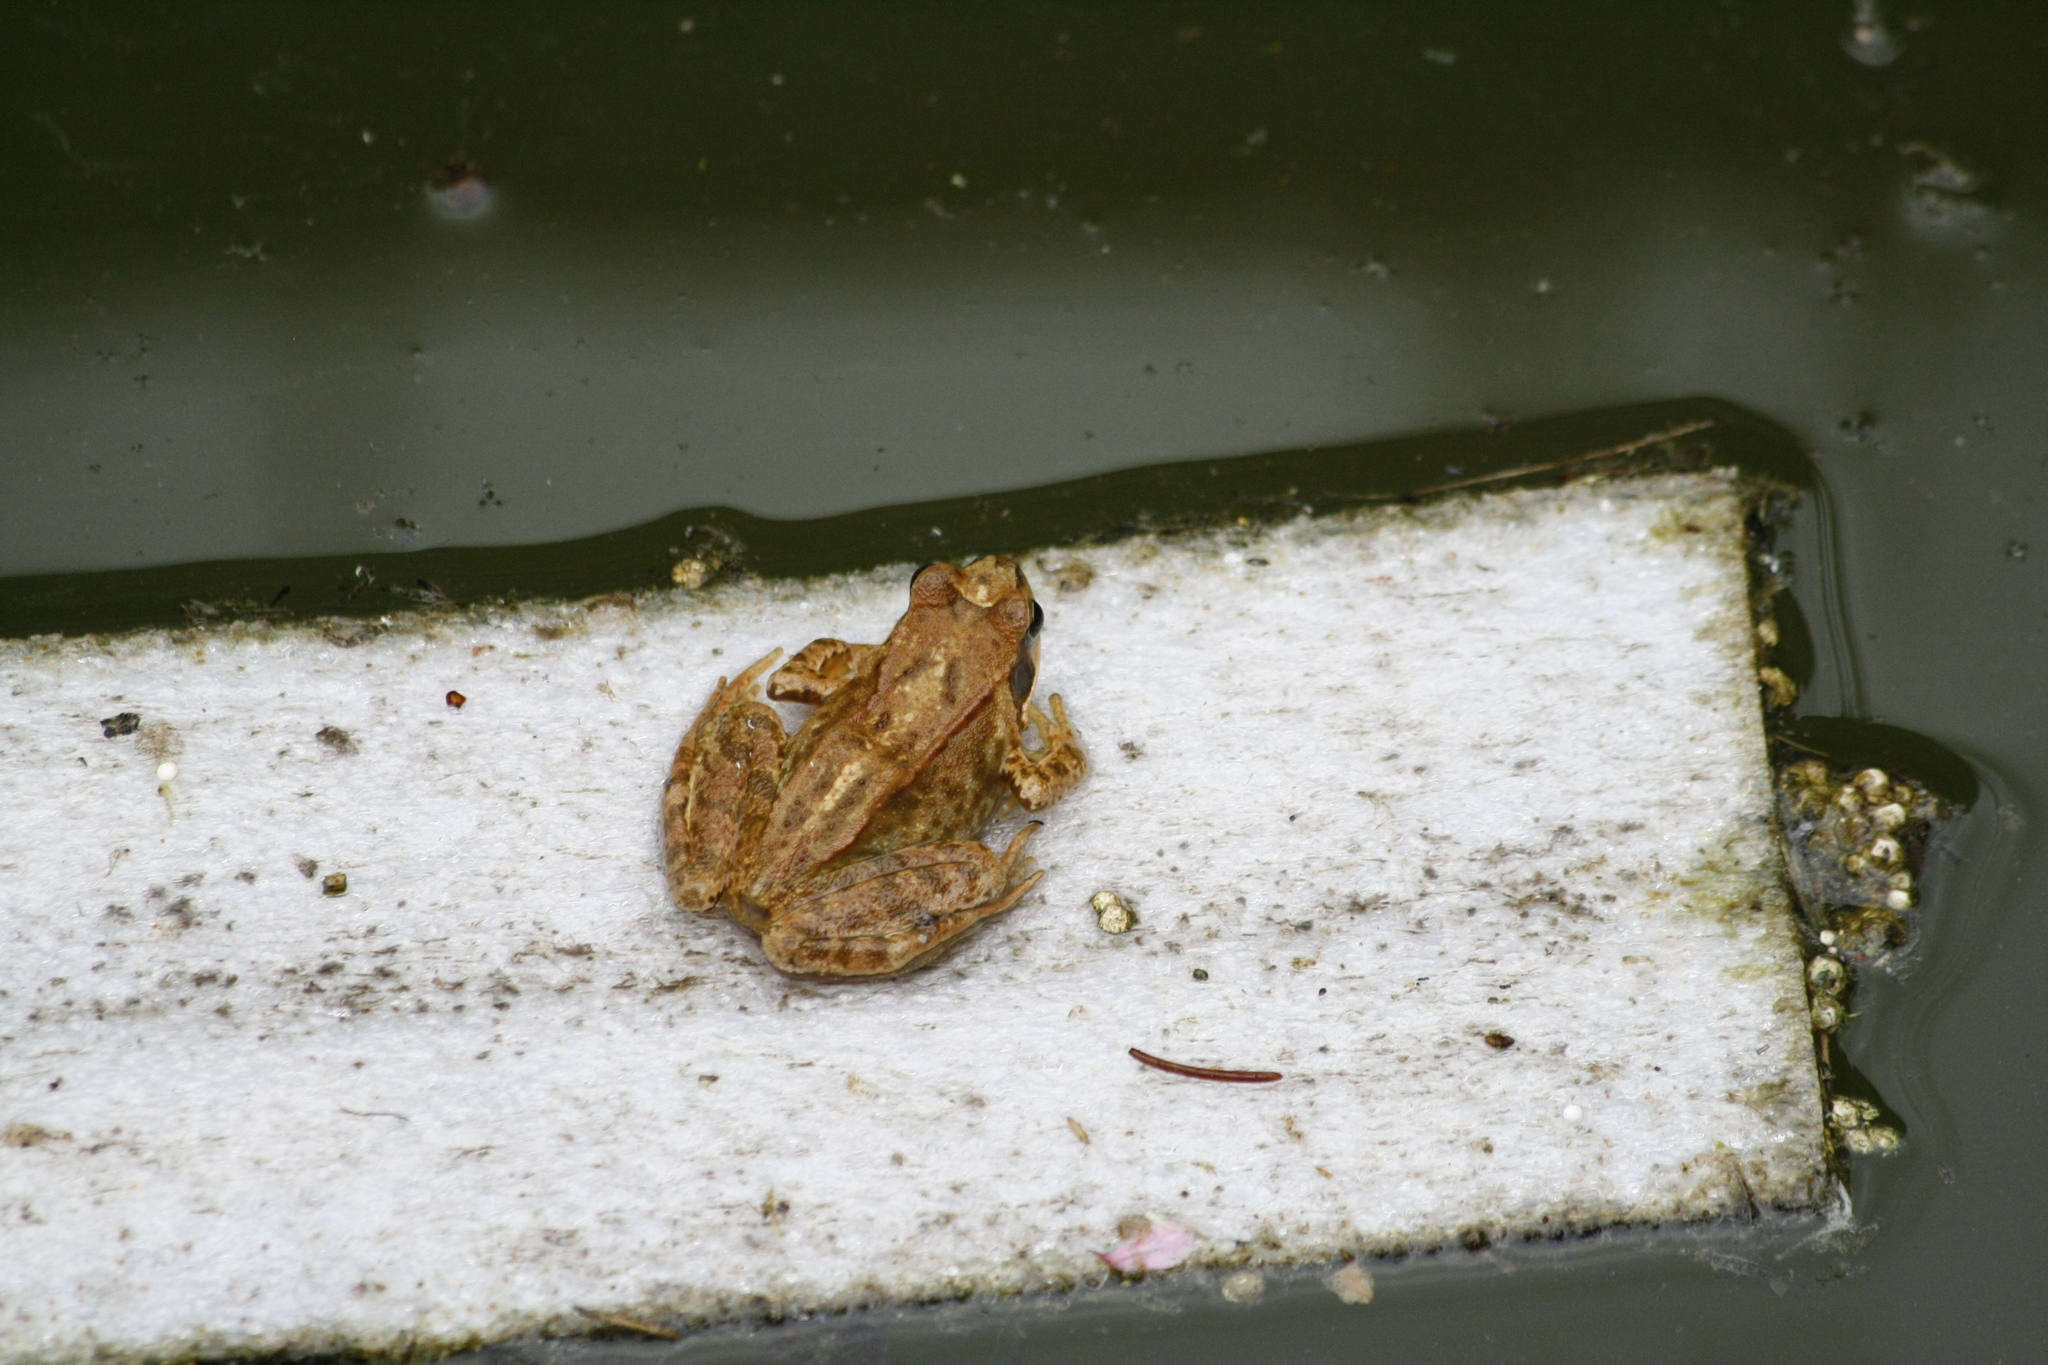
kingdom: Animalia
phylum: Chordata
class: Amphibia
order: Anura
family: Ranidae
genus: Rana
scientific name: Rana temporaria
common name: Common frog
